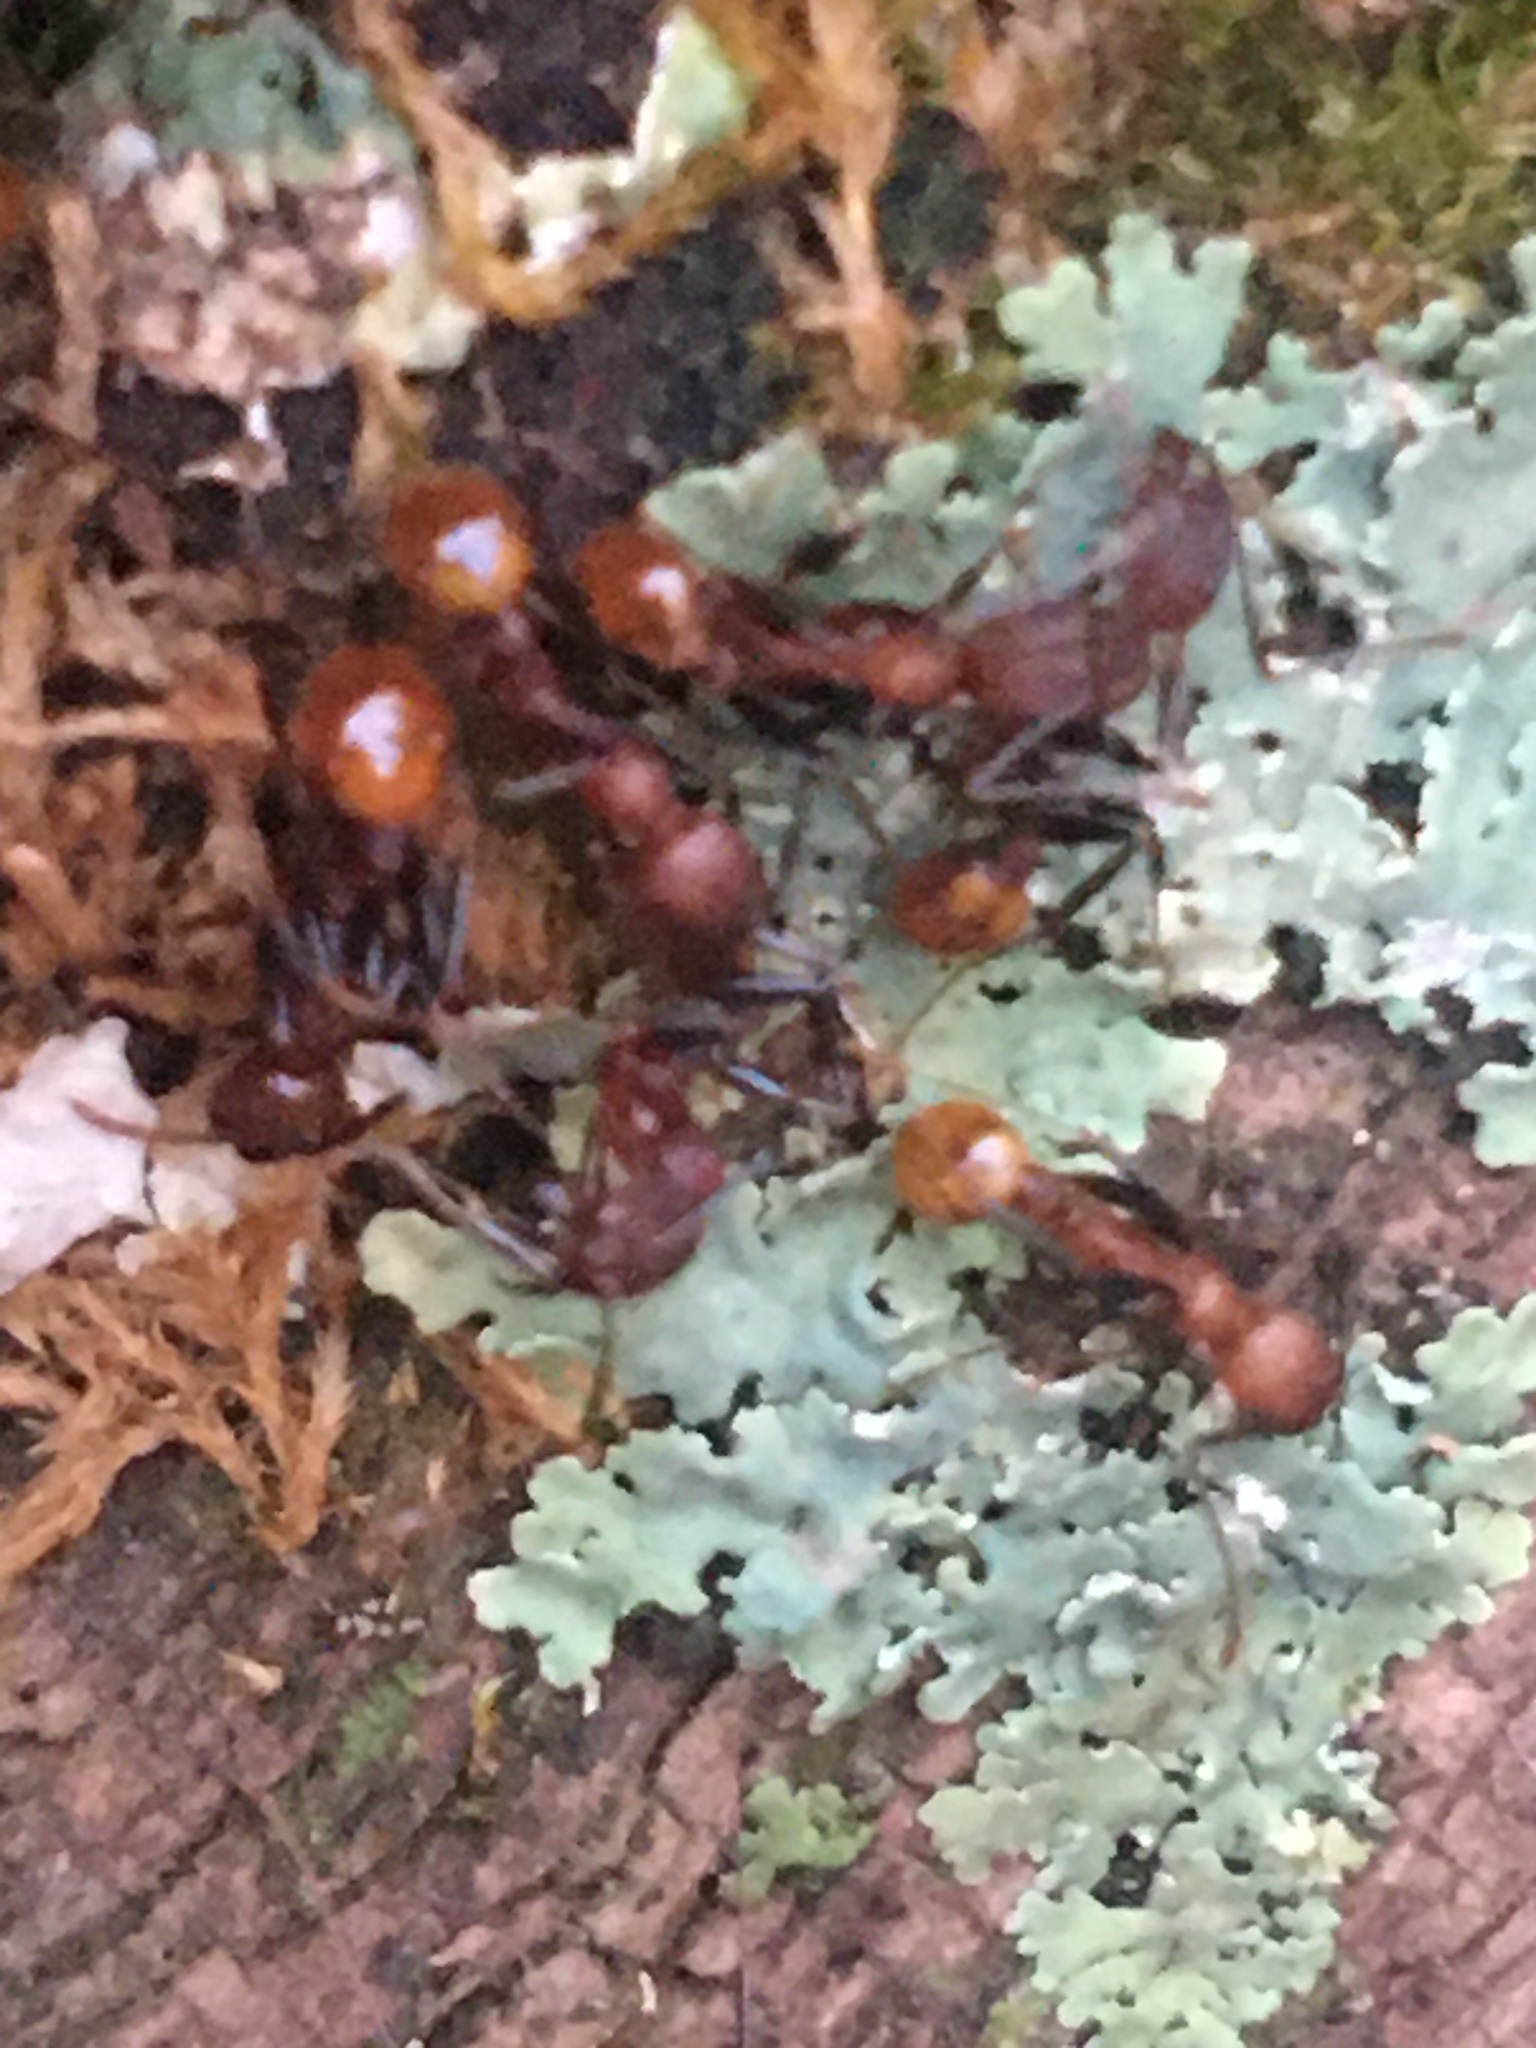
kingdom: Animalia
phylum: Arthropoda
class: Insecta
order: Hymenoptera
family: Formicidae
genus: Aphaenogaster
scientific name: Aphaenogaster lamellidens
